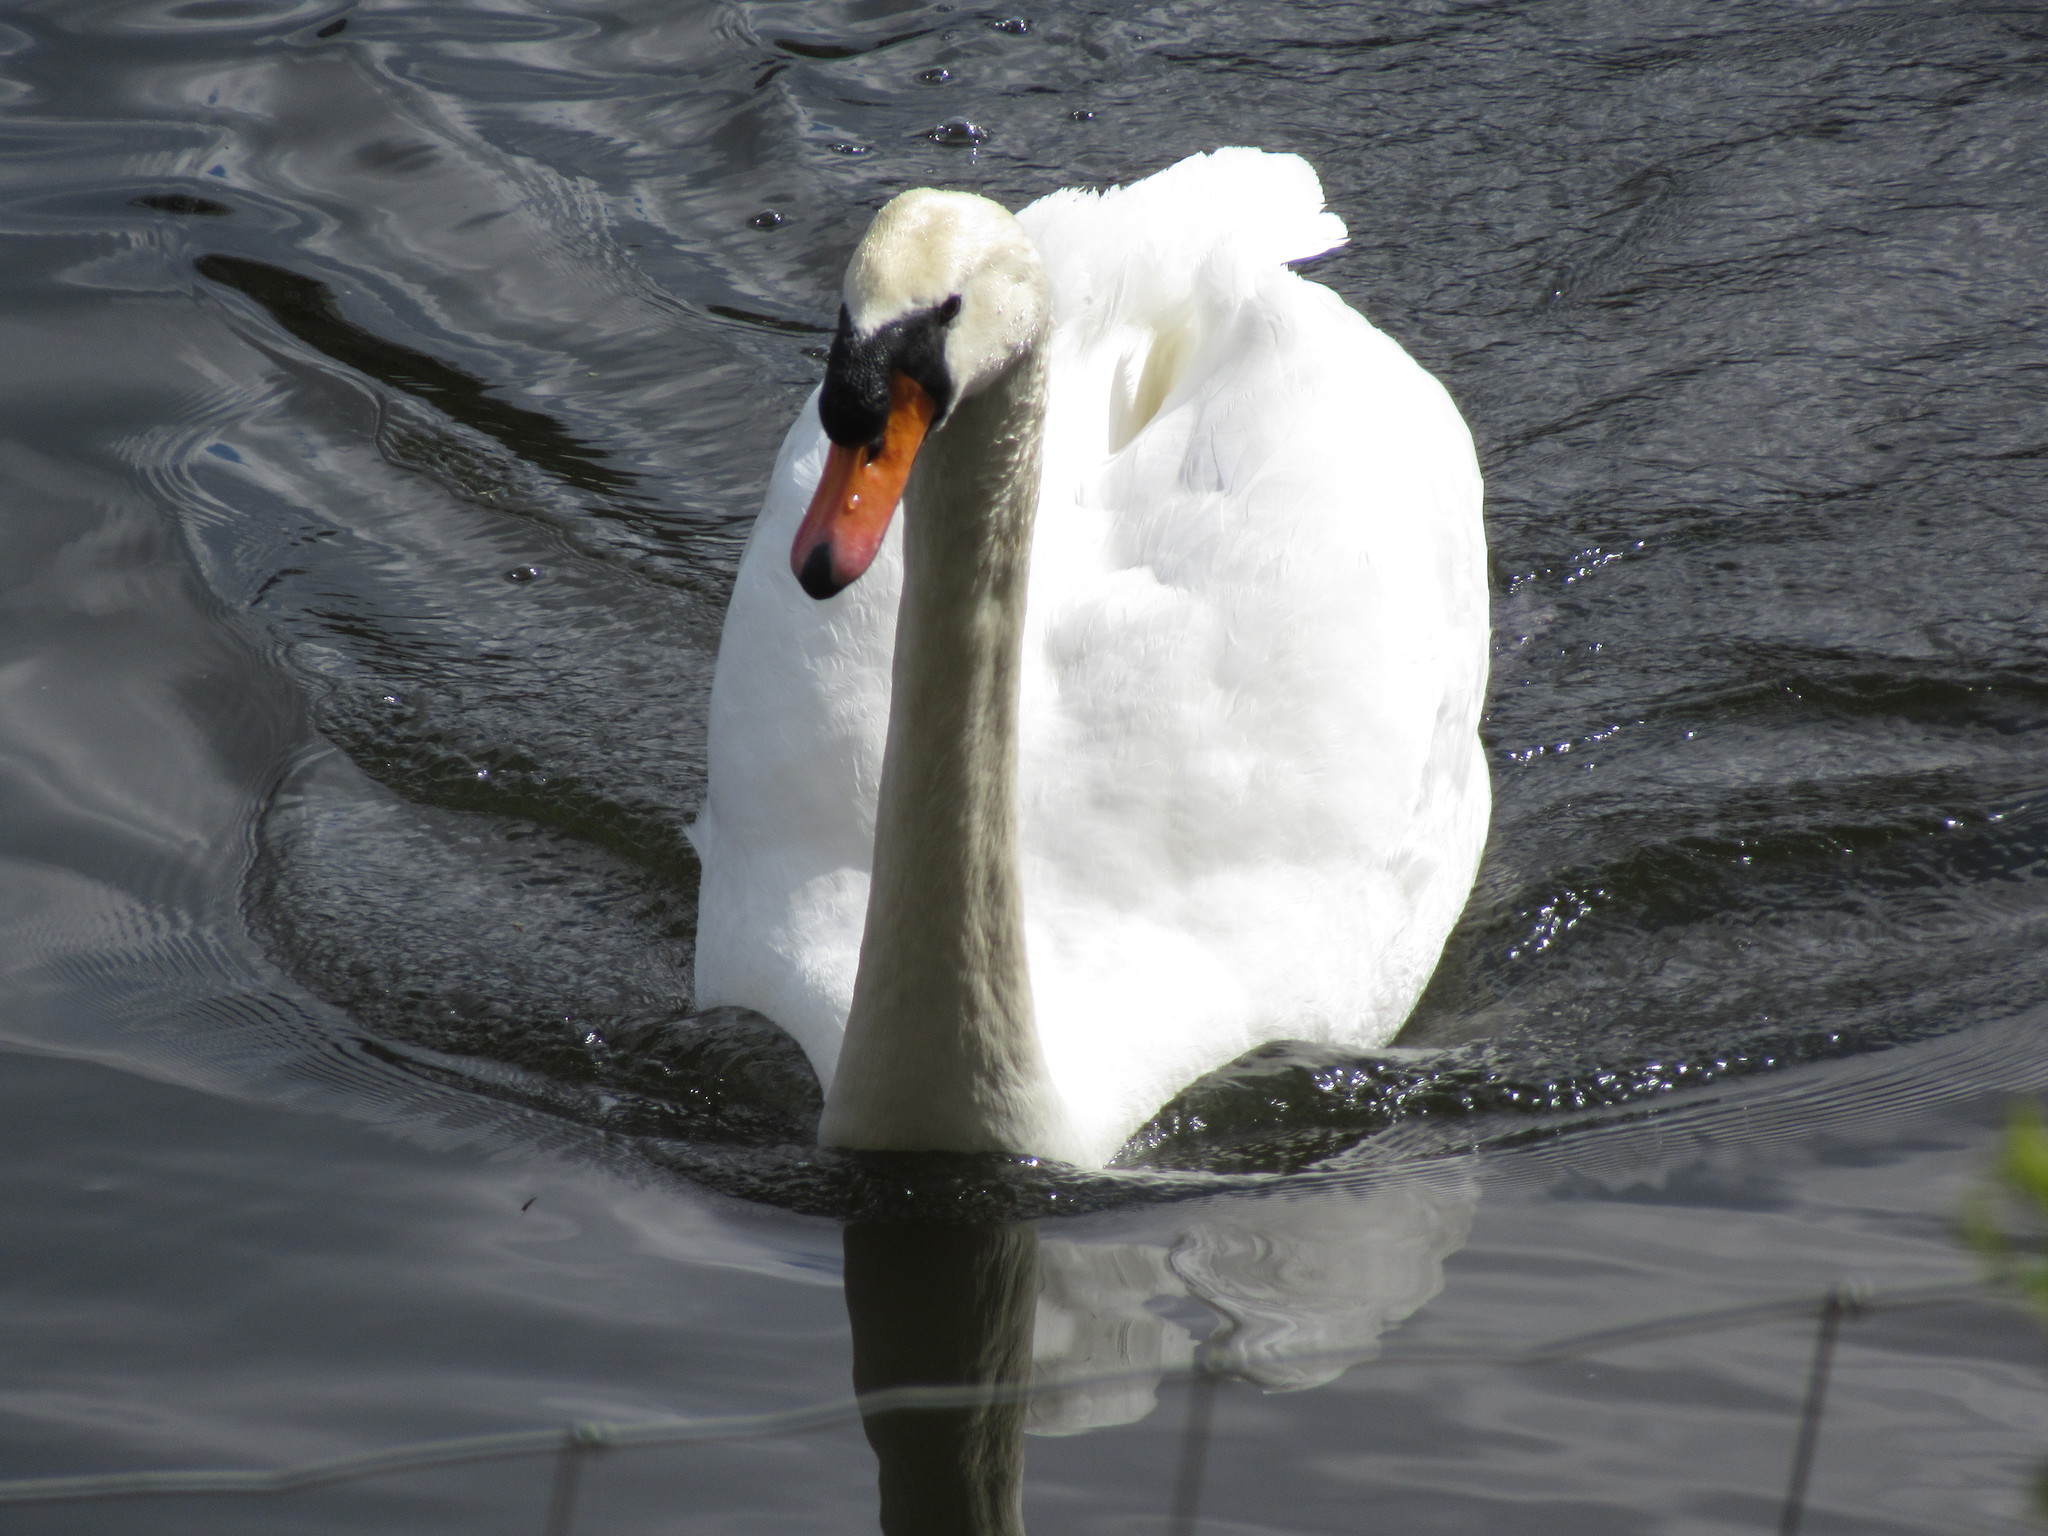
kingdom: Animalia
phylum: Chordata
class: Aves
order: Anseriformes
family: Anatidae
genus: Cygnus
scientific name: Cygnus olor
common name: Mute swan
